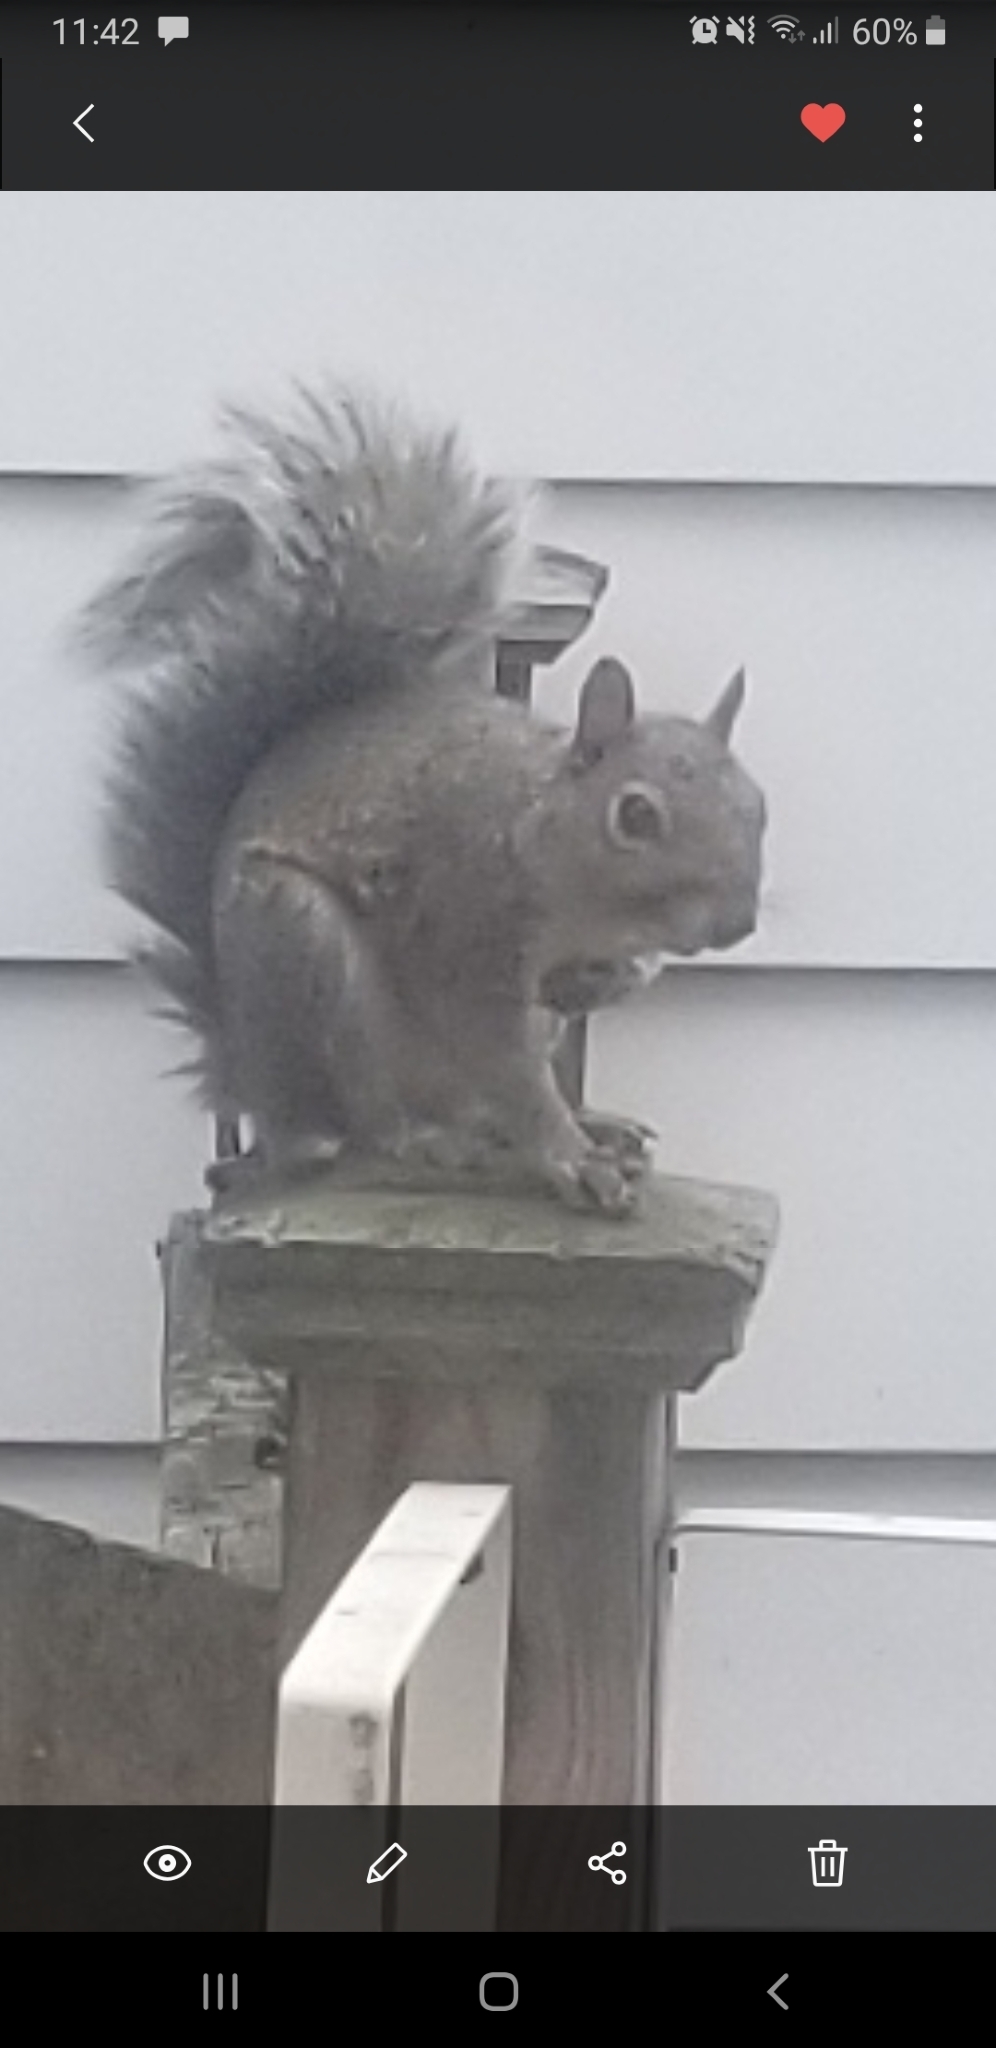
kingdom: Animalia
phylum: Chordata
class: Mammalia
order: Rodentia
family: Sciuridae
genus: Sciurus
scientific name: Sciurus carolinensis
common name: Eastern gray squirrel
